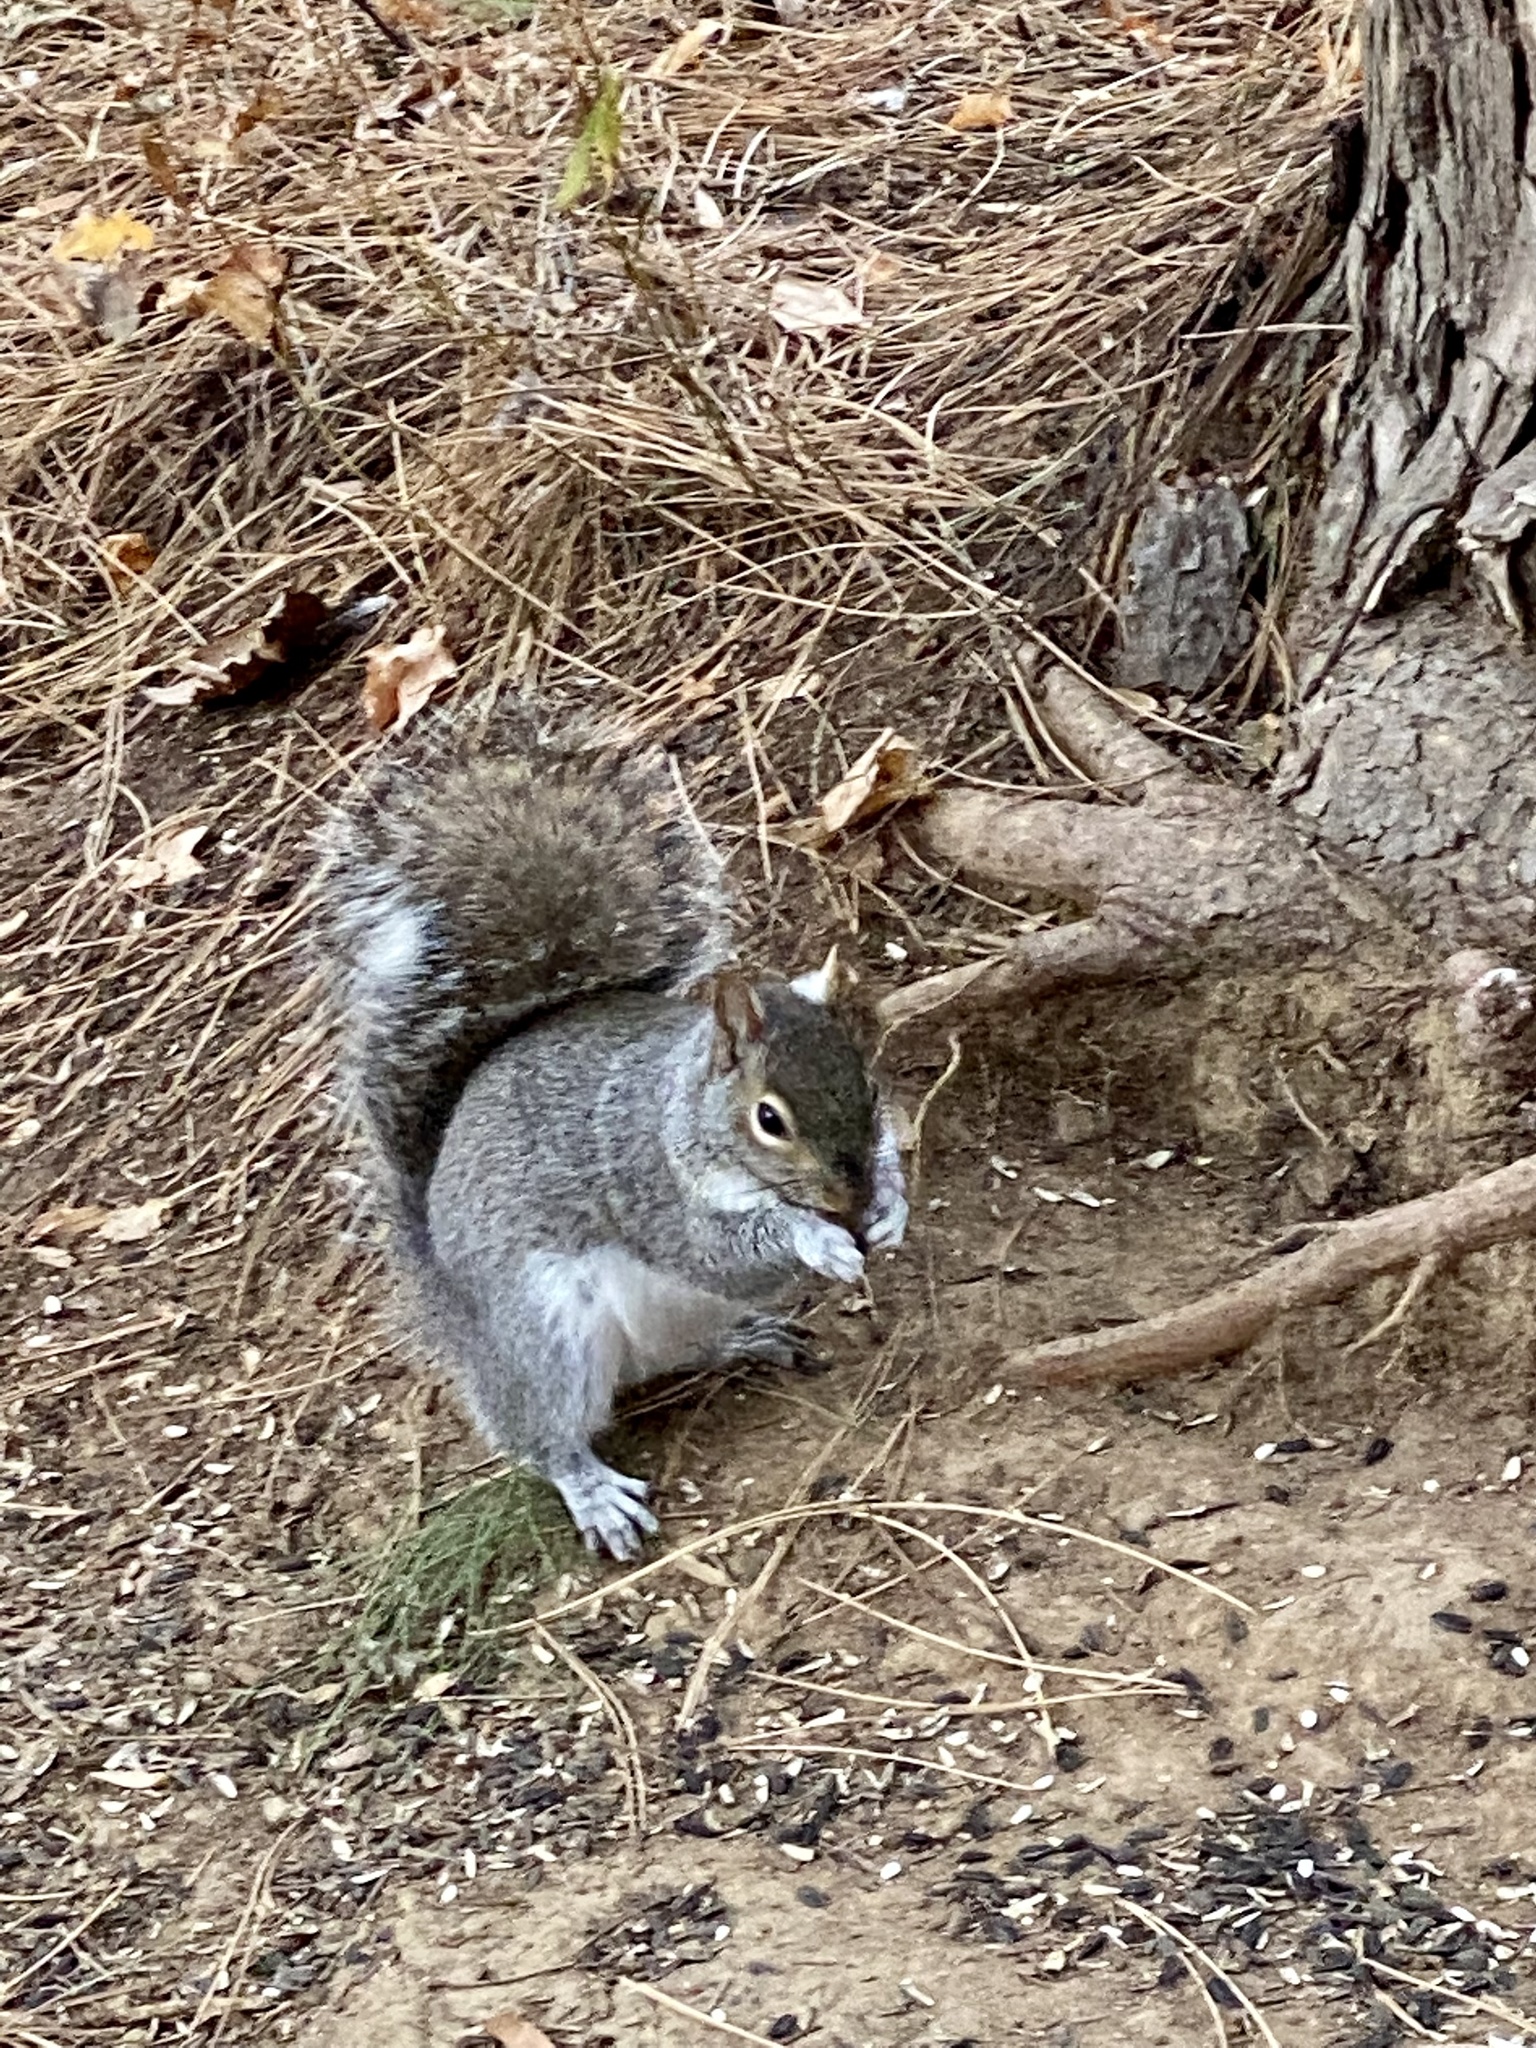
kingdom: Animalia
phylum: Chordata
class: Mammalia
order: Rodentia
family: Sciuridae
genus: Sciurus
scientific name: Sciurus carolinensis
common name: Eastern gray squirrel
